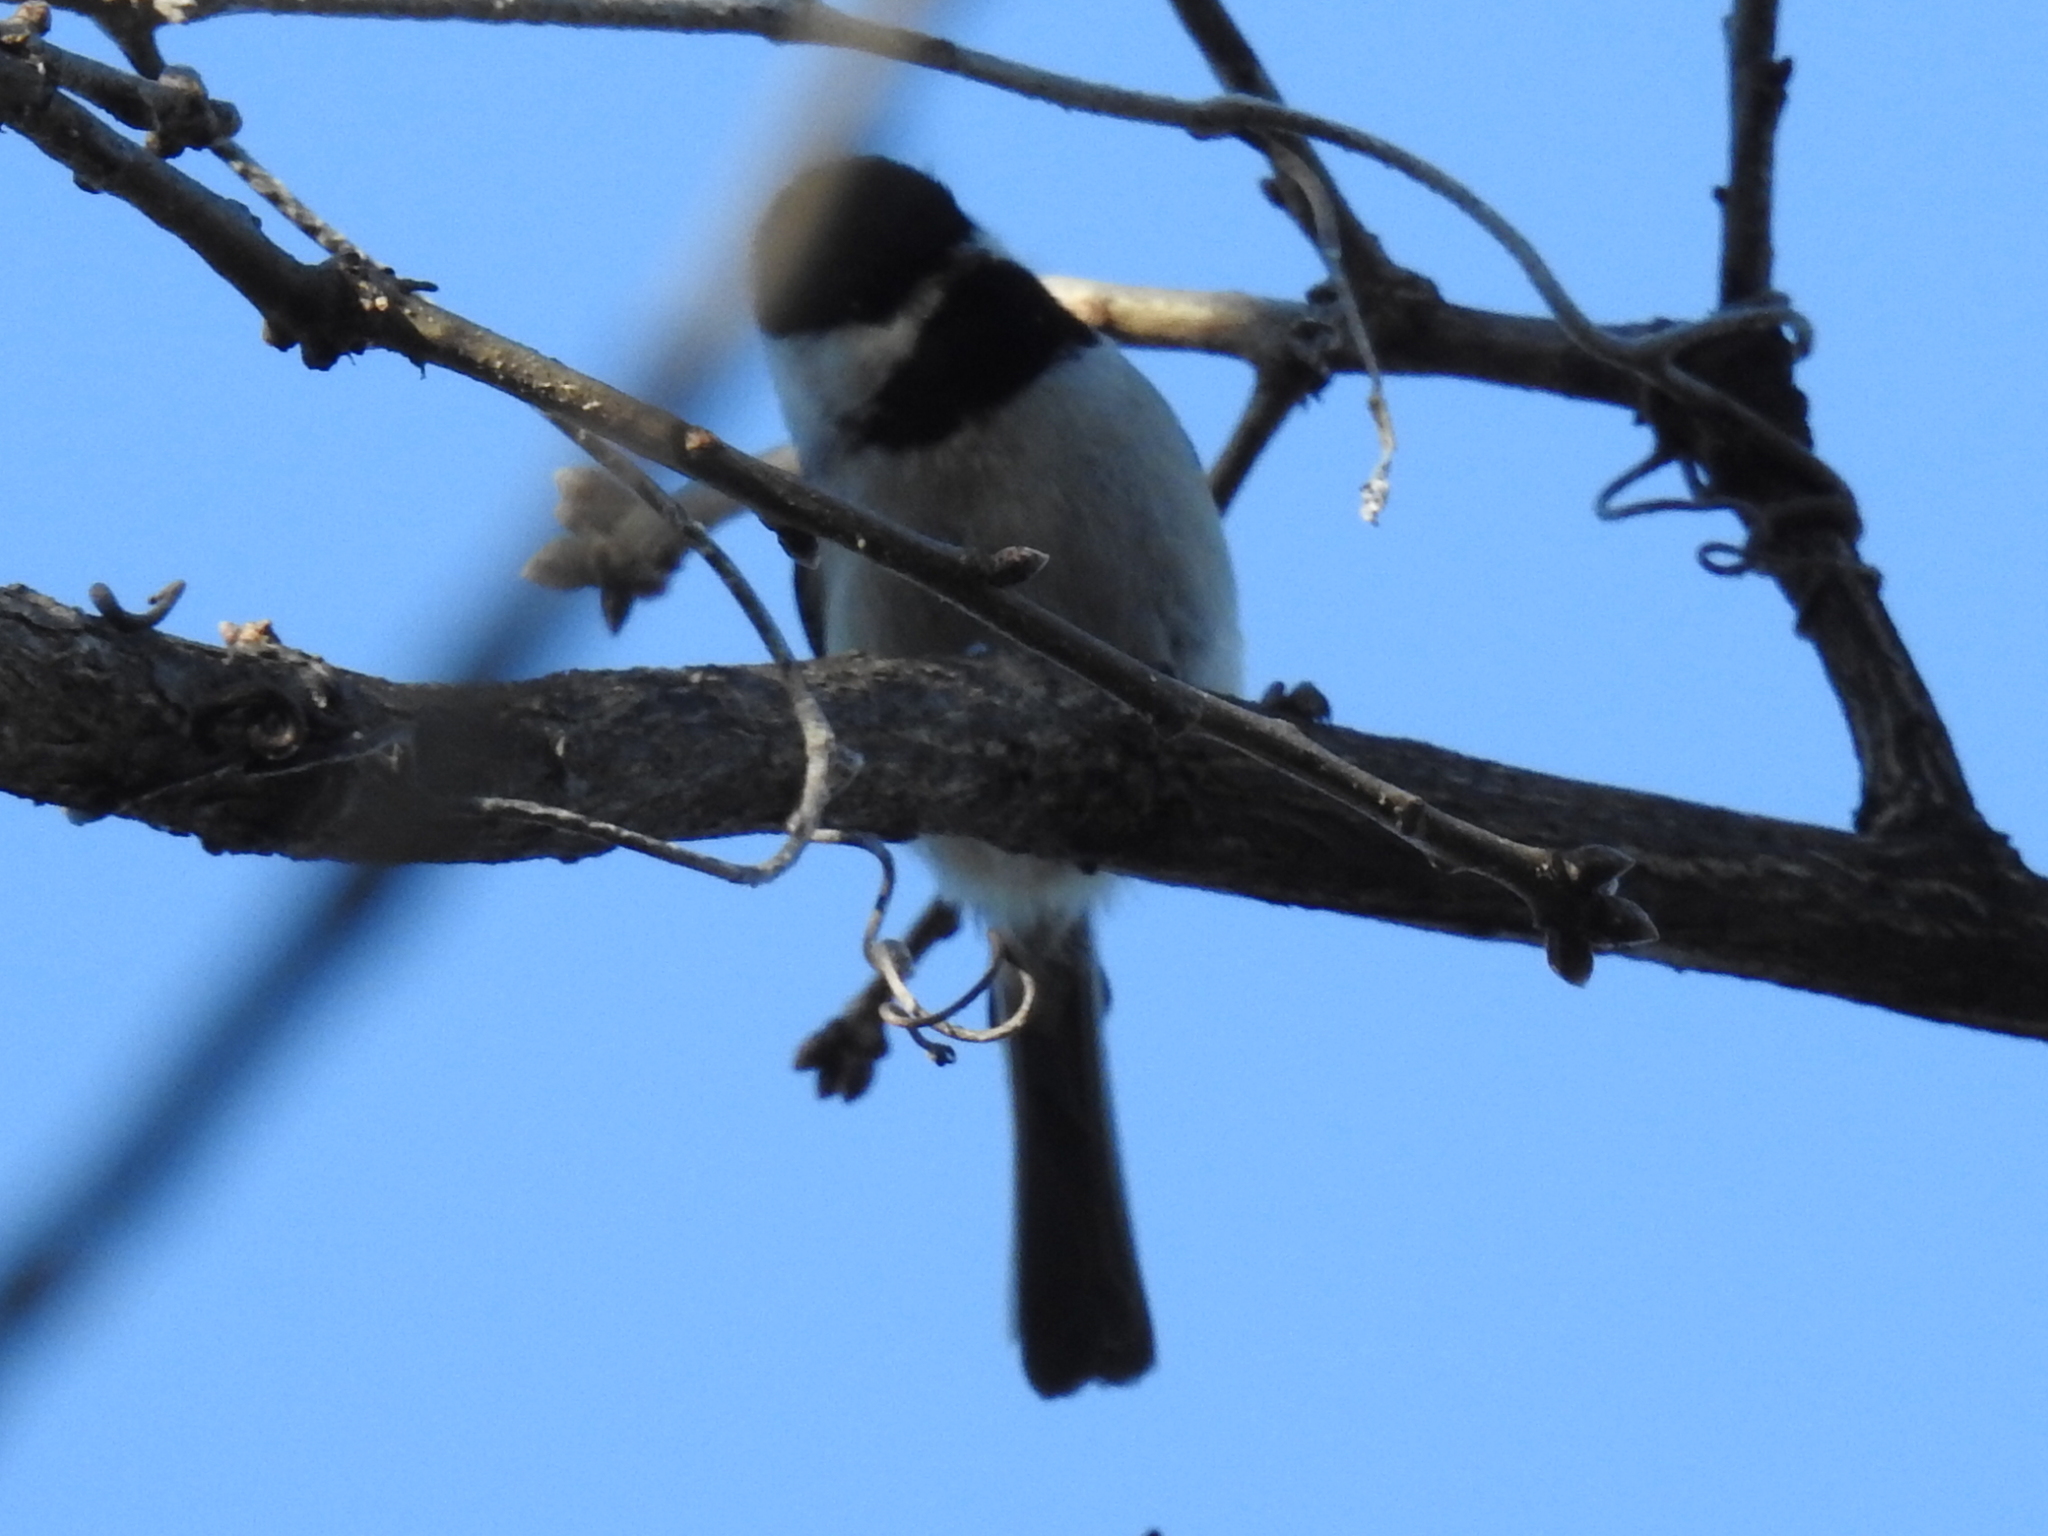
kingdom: Animalia
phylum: Chordata
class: Aves
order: Passeriformes
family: Paridae
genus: Poecile
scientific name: Poecile carolinensis
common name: Carolina chickadee
